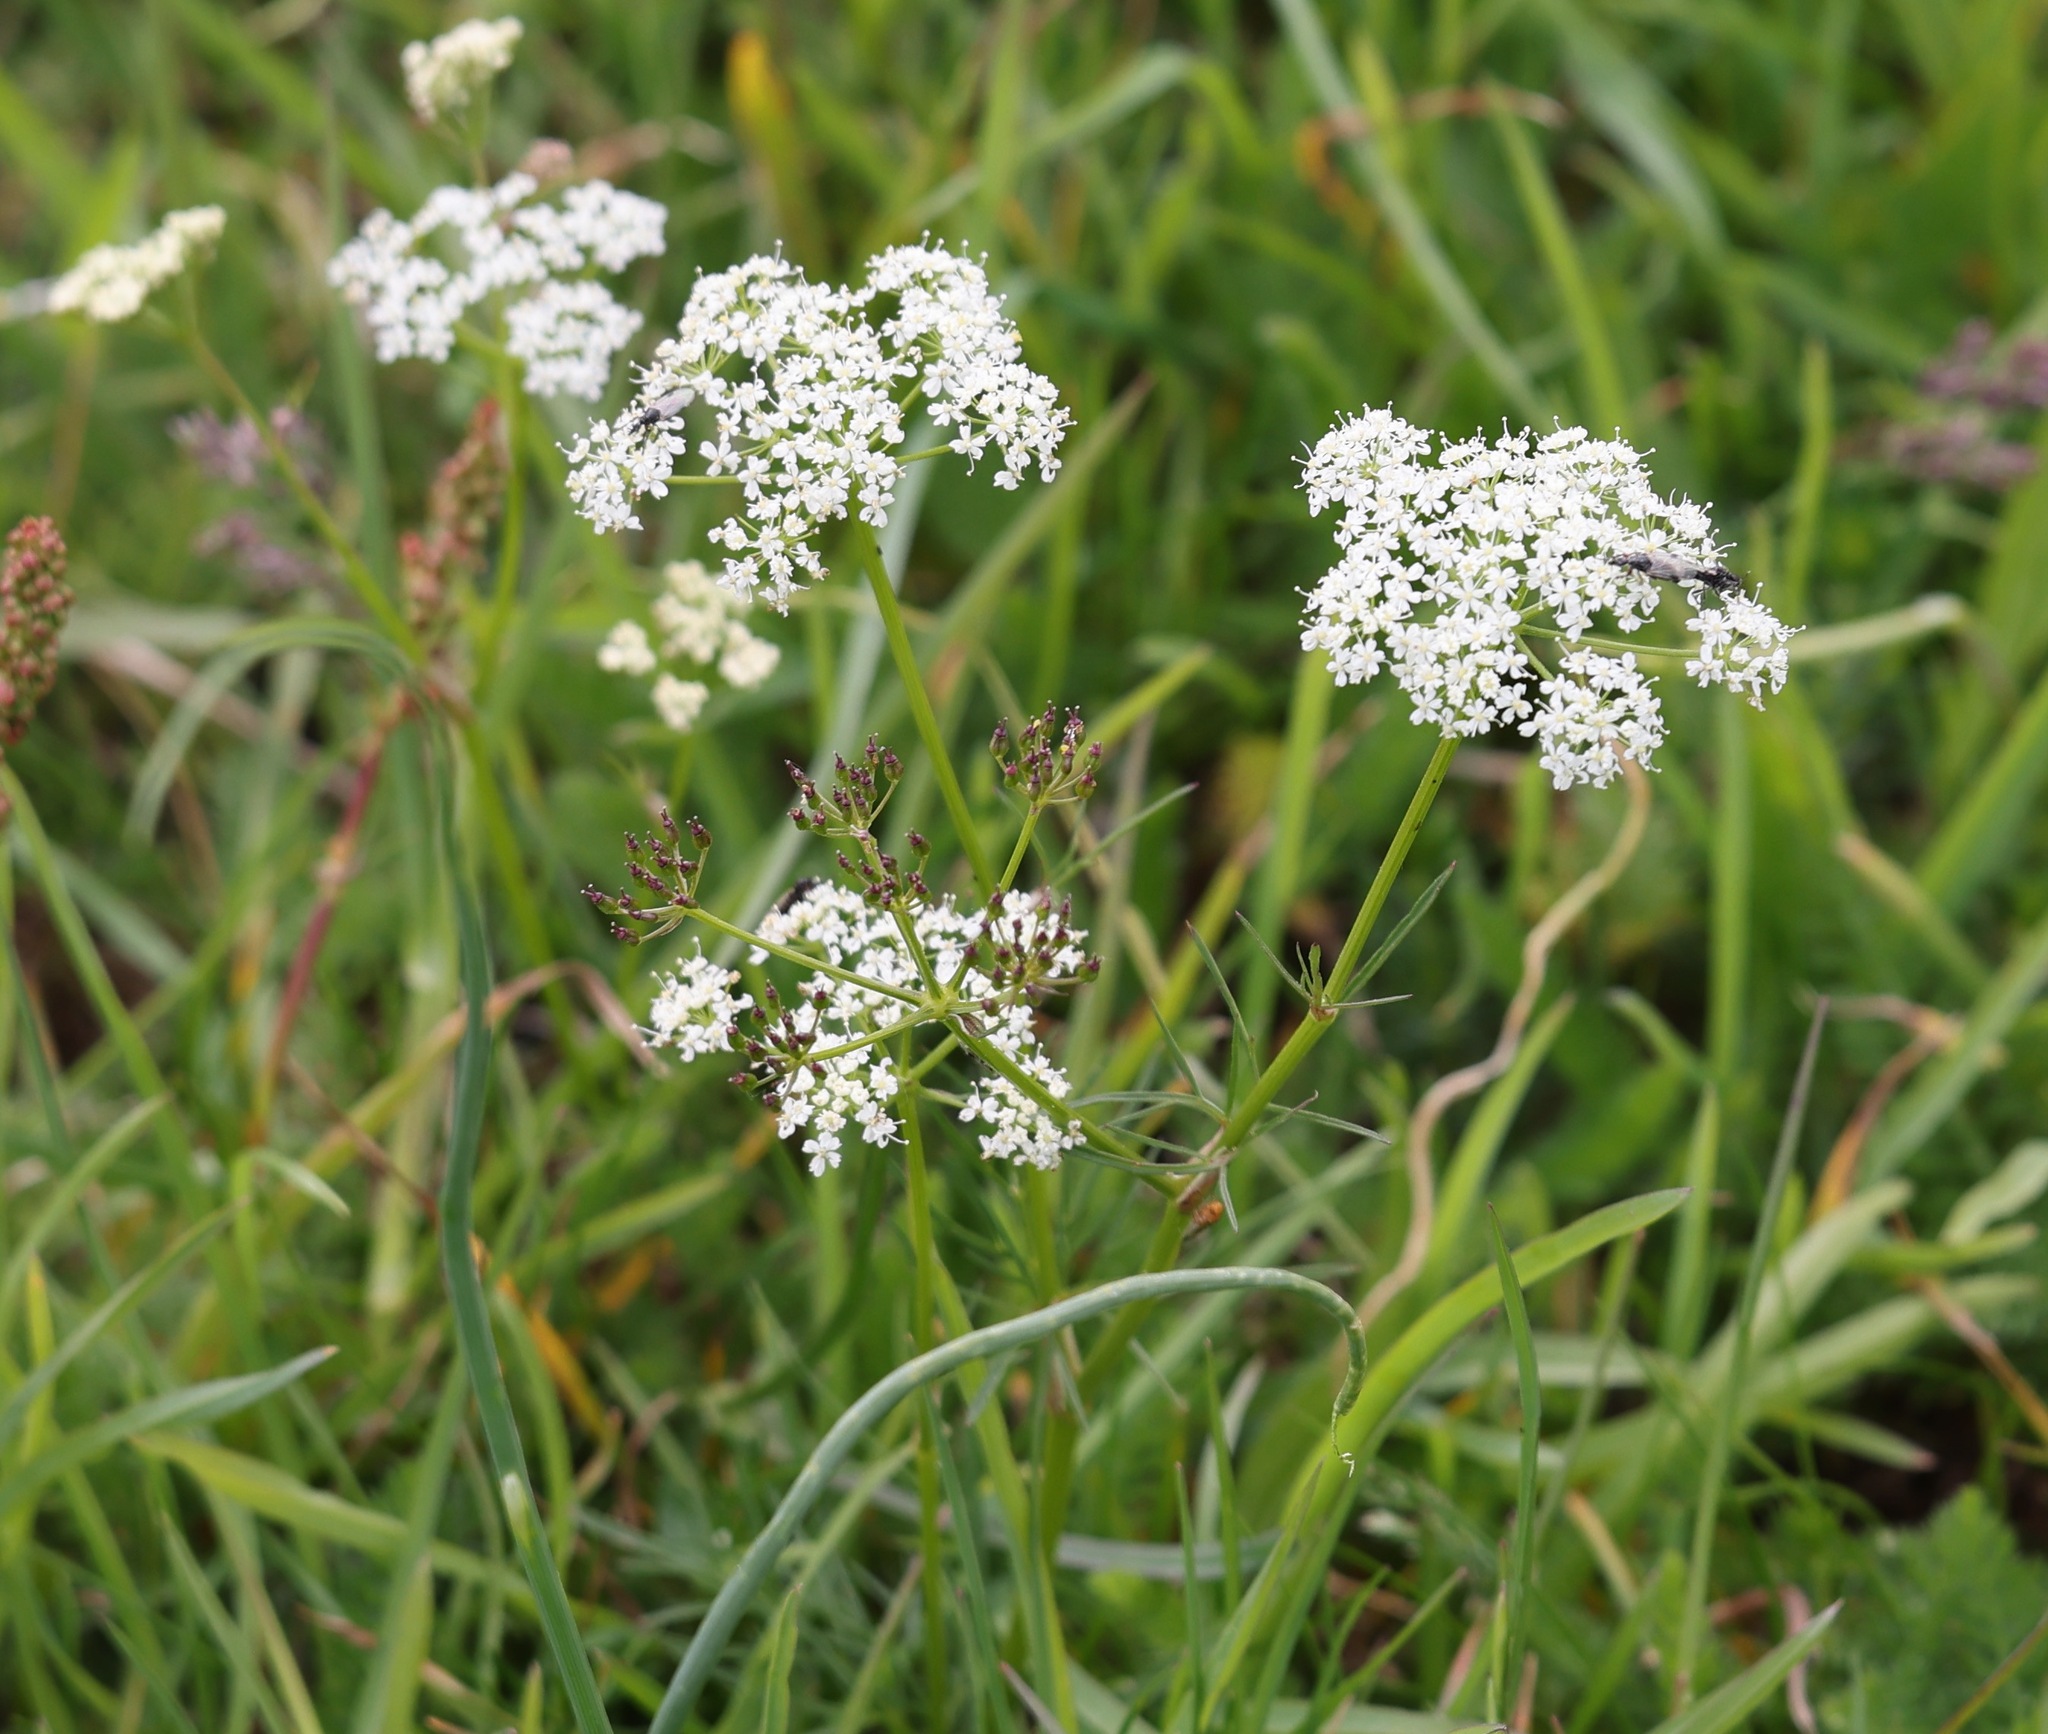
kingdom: Plantae
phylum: Tracheophyta
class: Magnoliopsida
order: Apiales
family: Apiaceae
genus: Conopodium
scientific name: Conopodium majus
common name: Pignut
